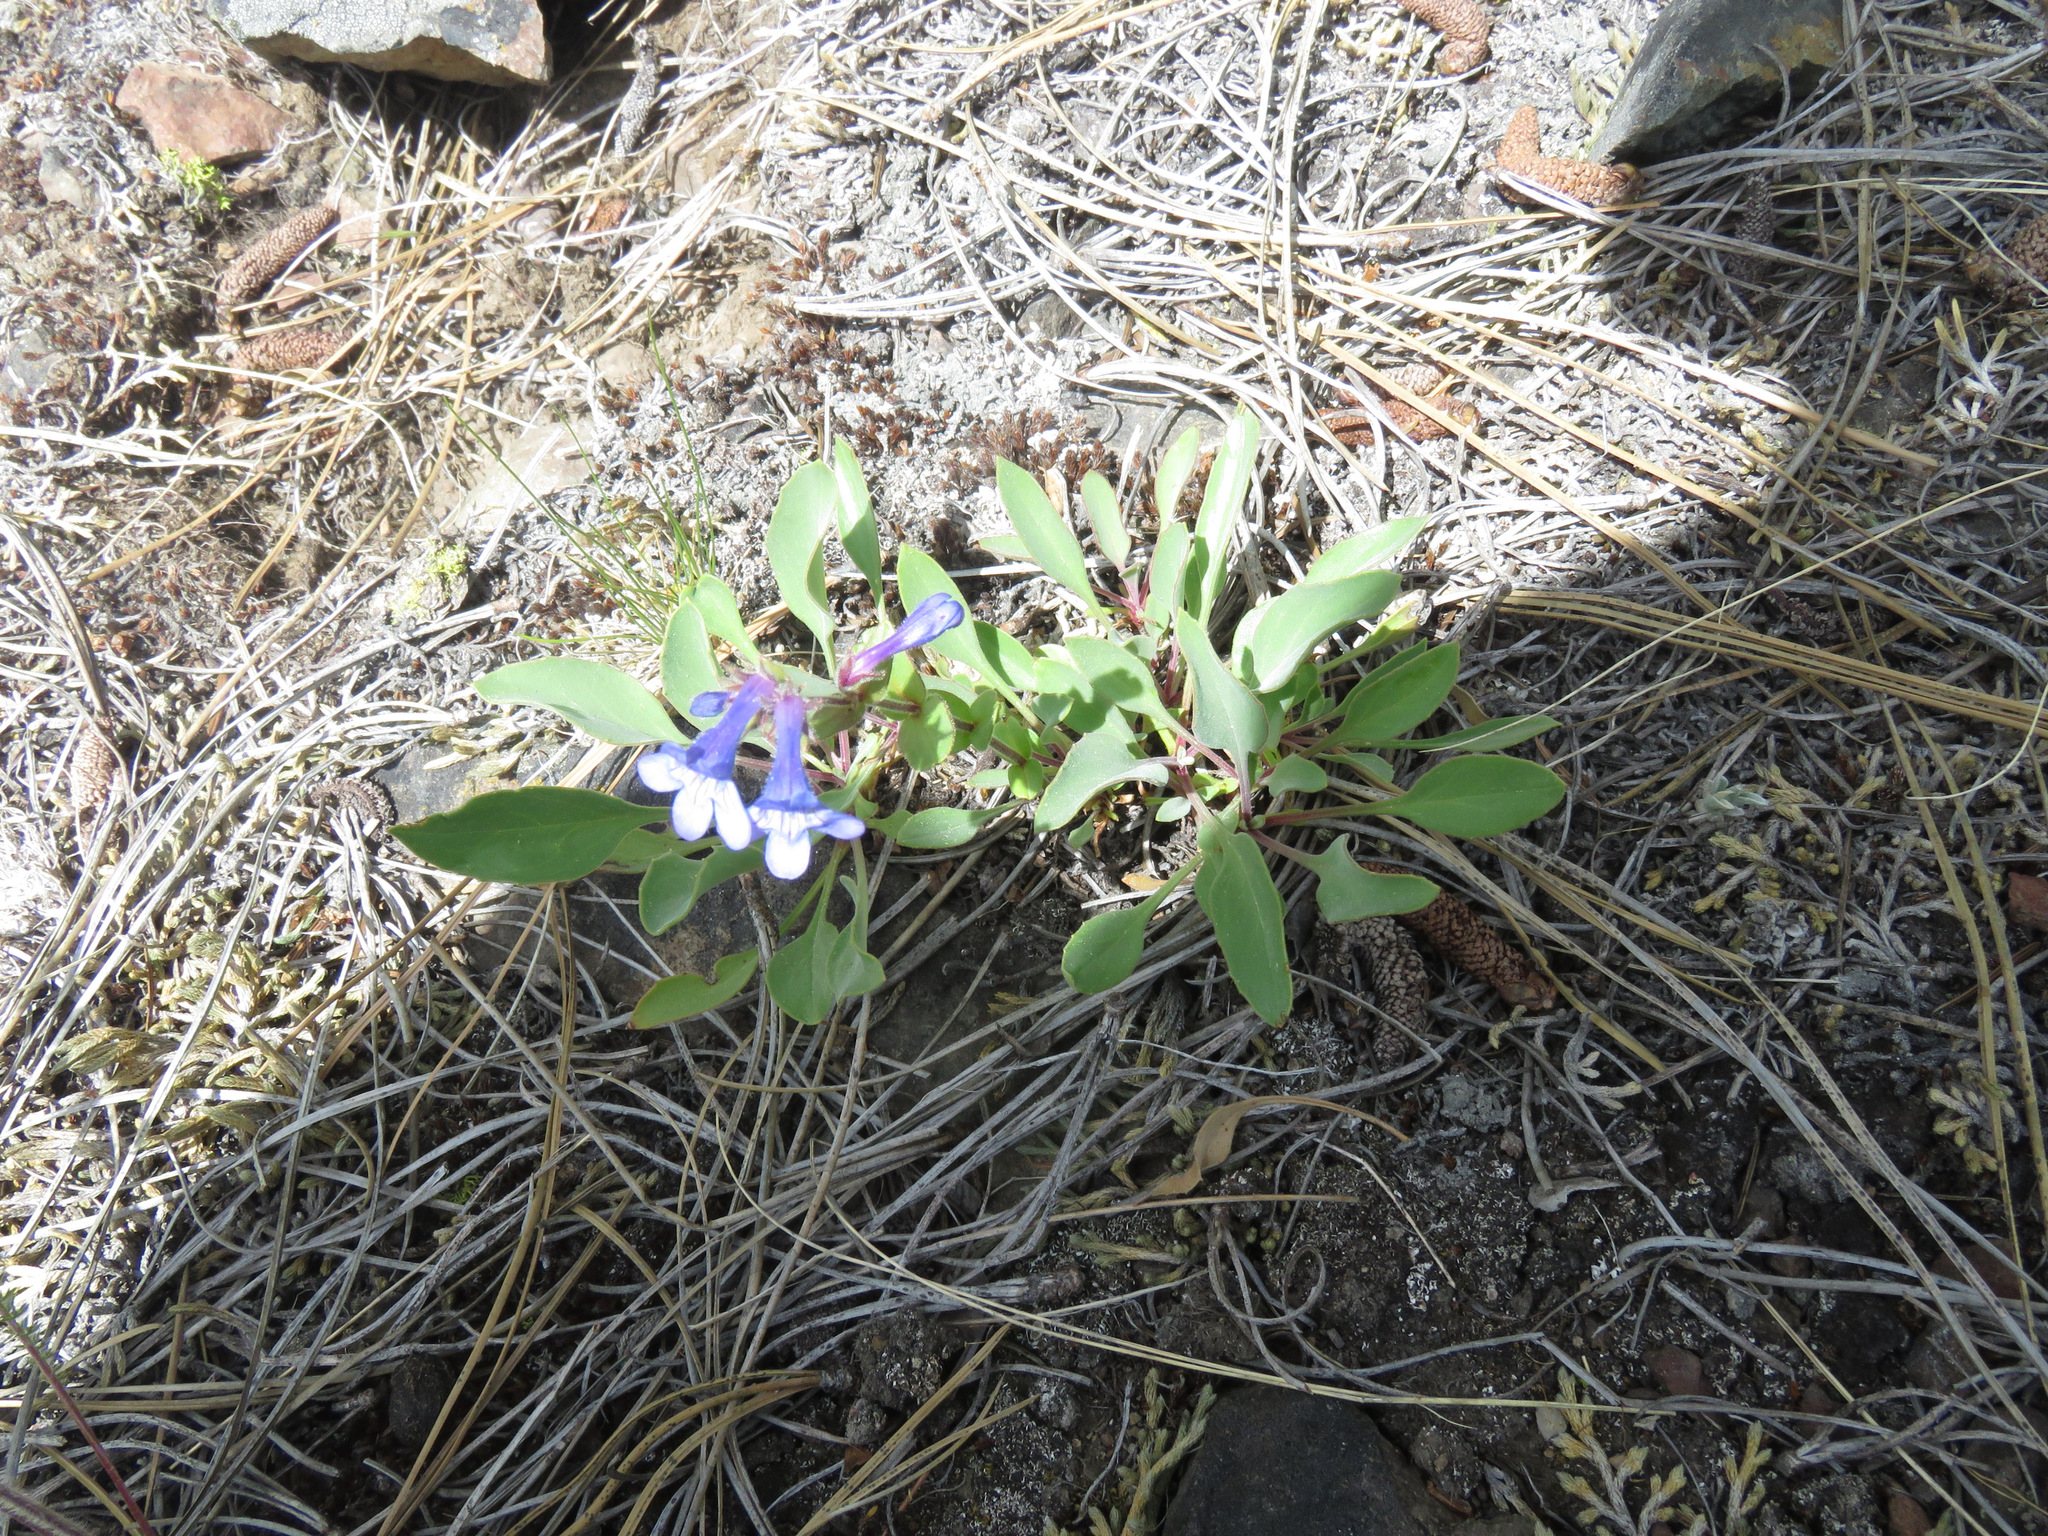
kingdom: Plantae
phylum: Tracheophyta
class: Magnoliopsida
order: Lamiales
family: Plantaginaceae
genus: Penstemon
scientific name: Penstemon pruinosus
